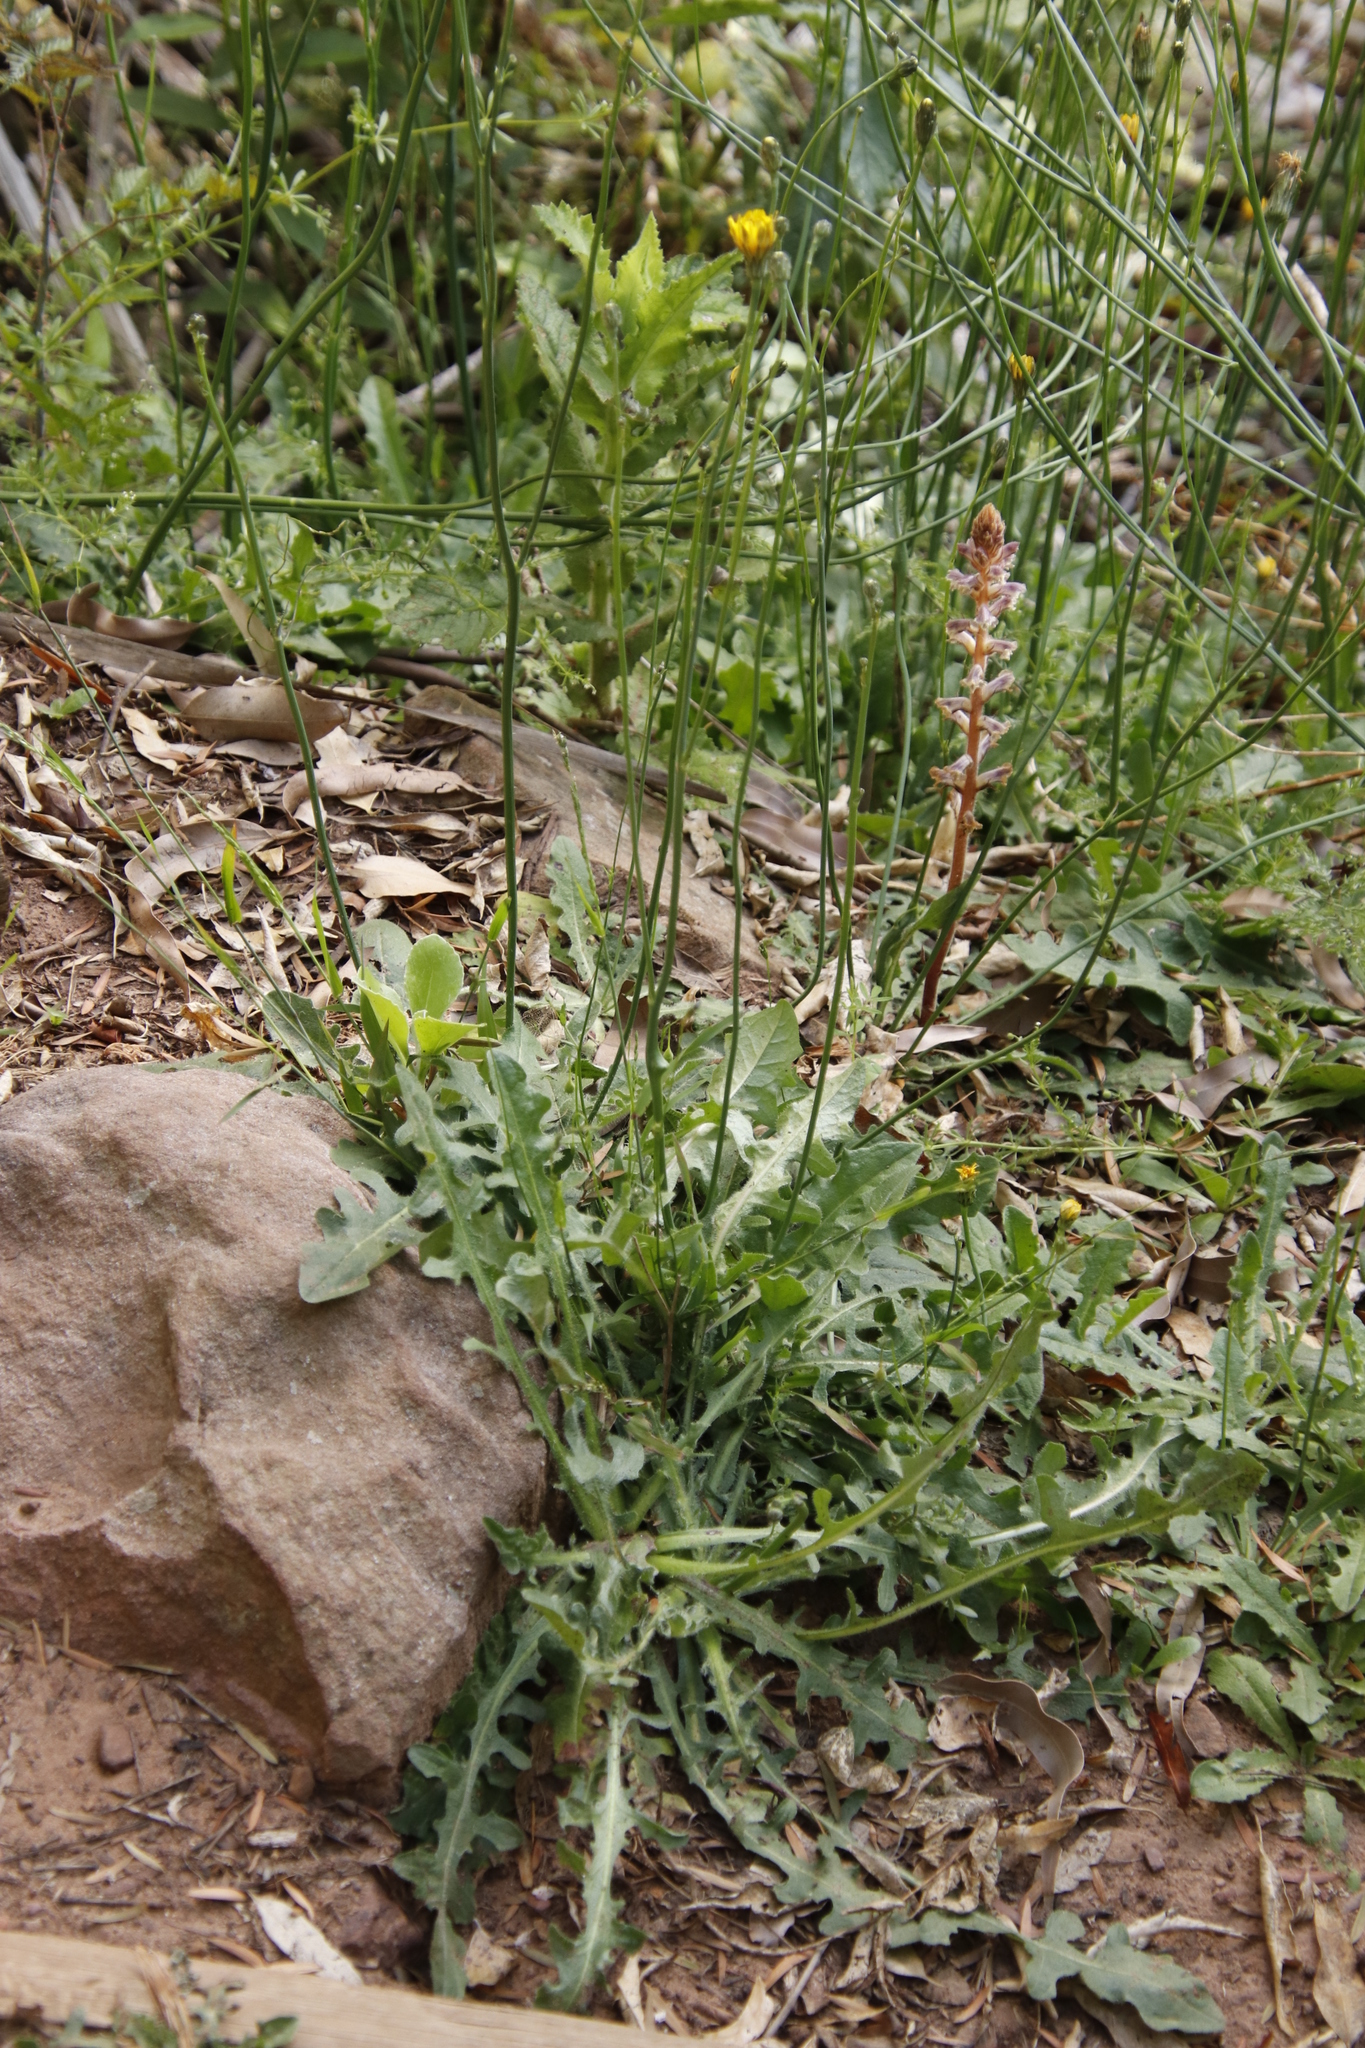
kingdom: Plantae
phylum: Tracheophyta
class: Magnoliopsida
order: Asterales
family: Asteraceae
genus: Hypochaeris
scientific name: Hypochaeris radicata
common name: Flatweed
